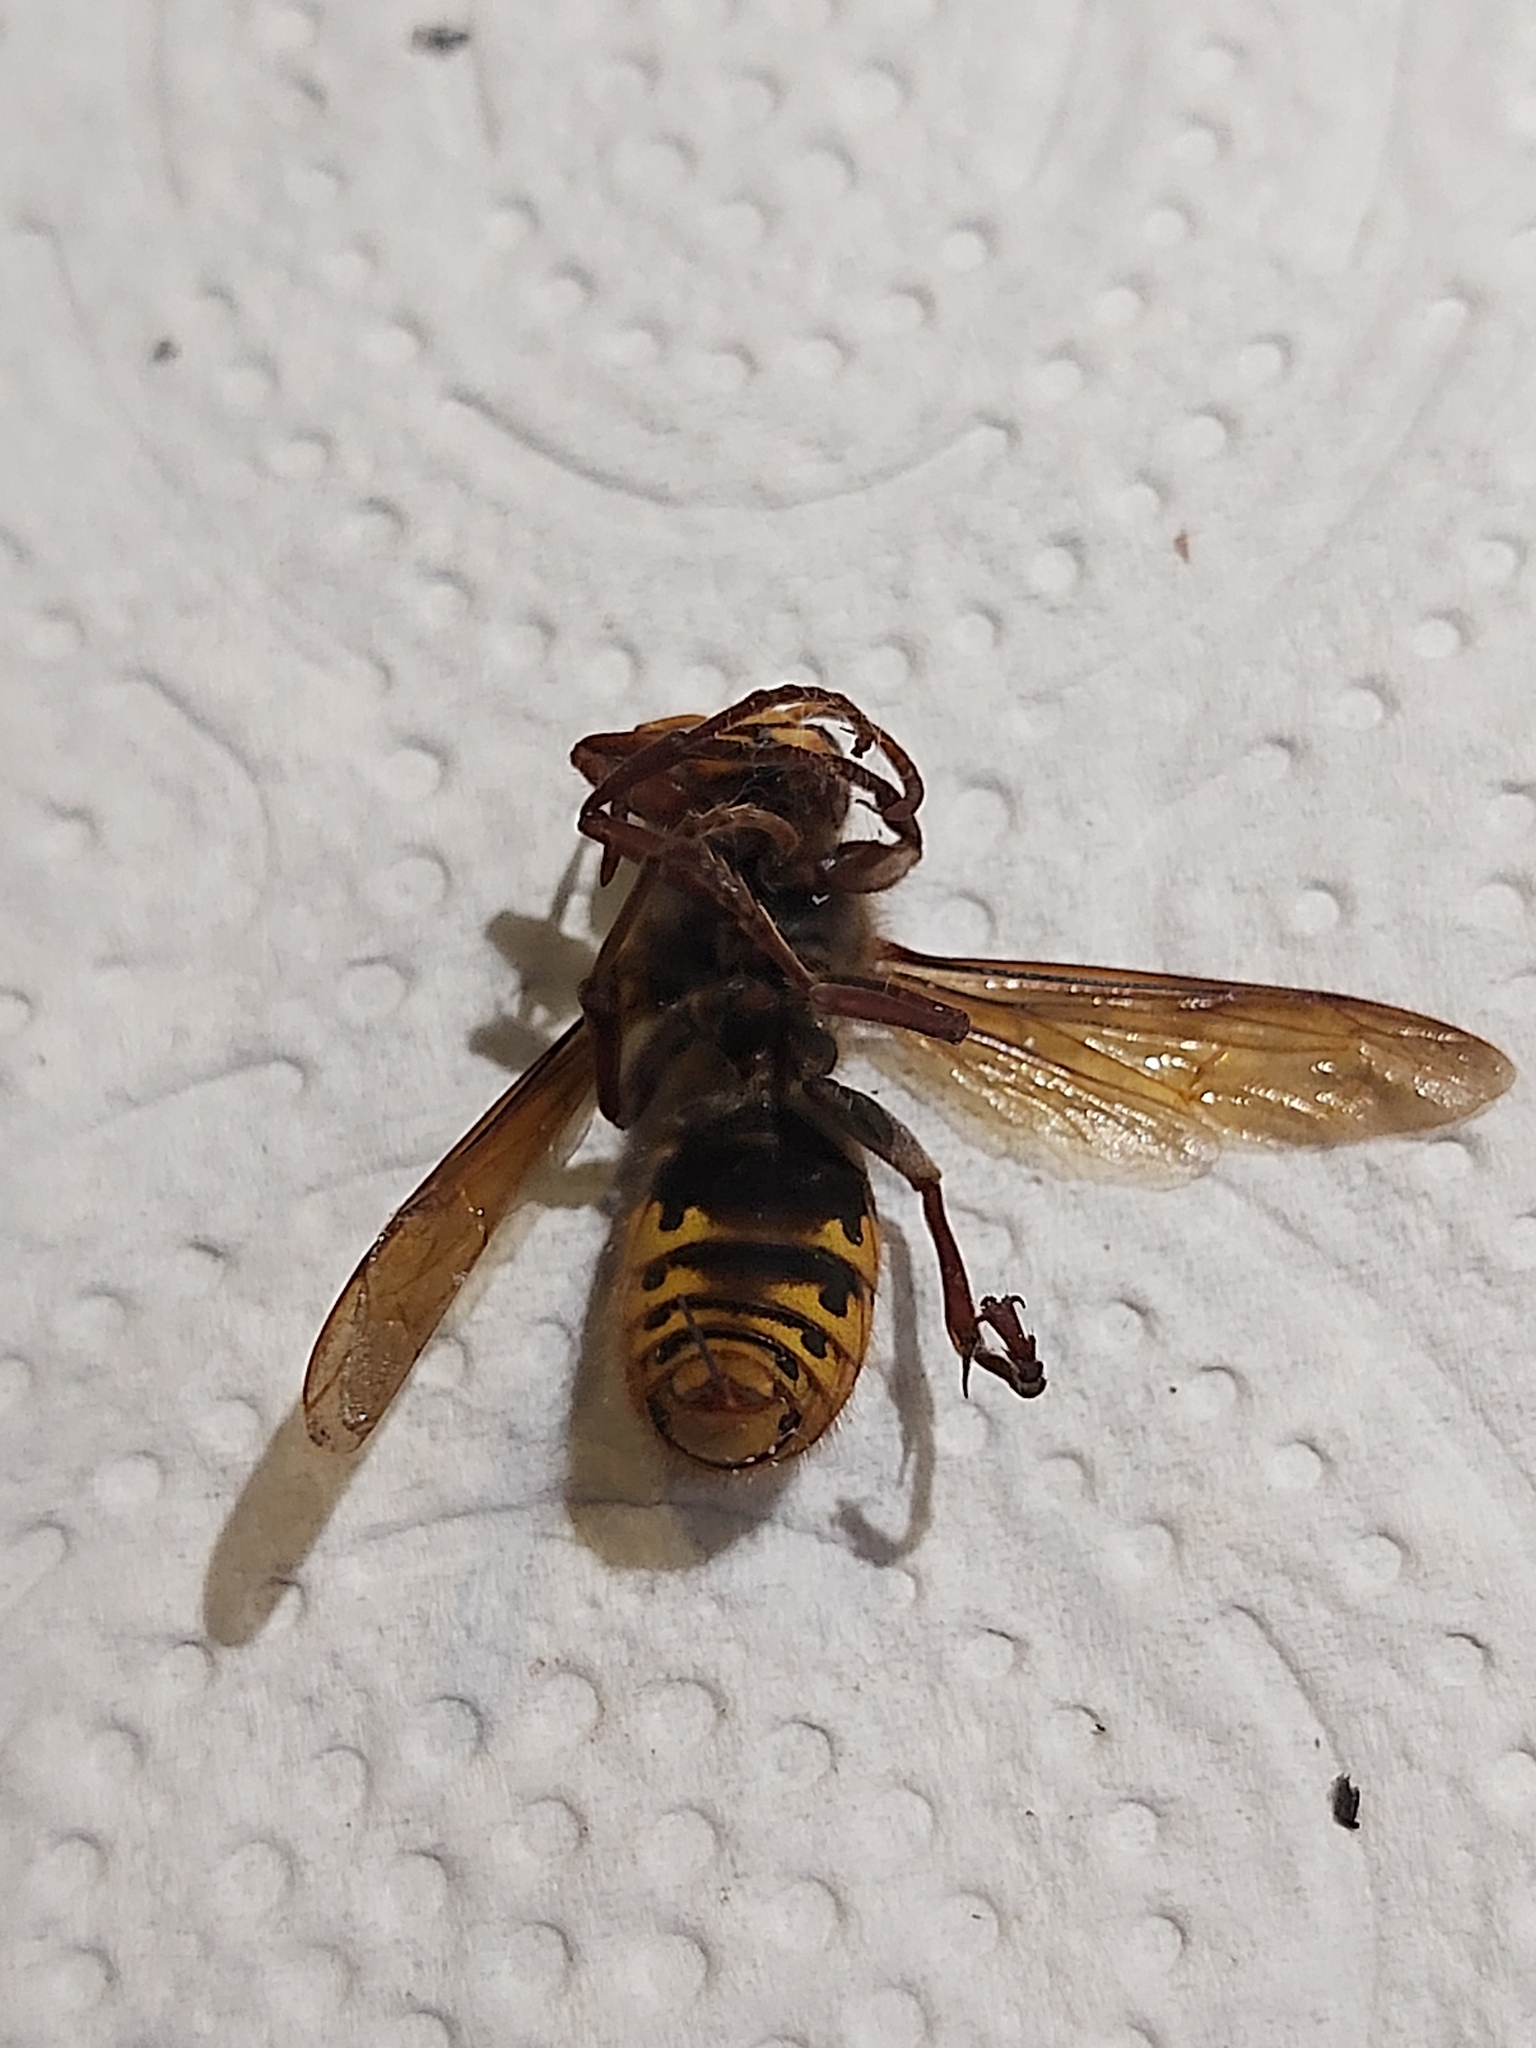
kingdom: Animalia
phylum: Arthropoda
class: Insecta
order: Hymenoptera
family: Vespidae
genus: Vespa
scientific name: Vespa crabro
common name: Hornet
